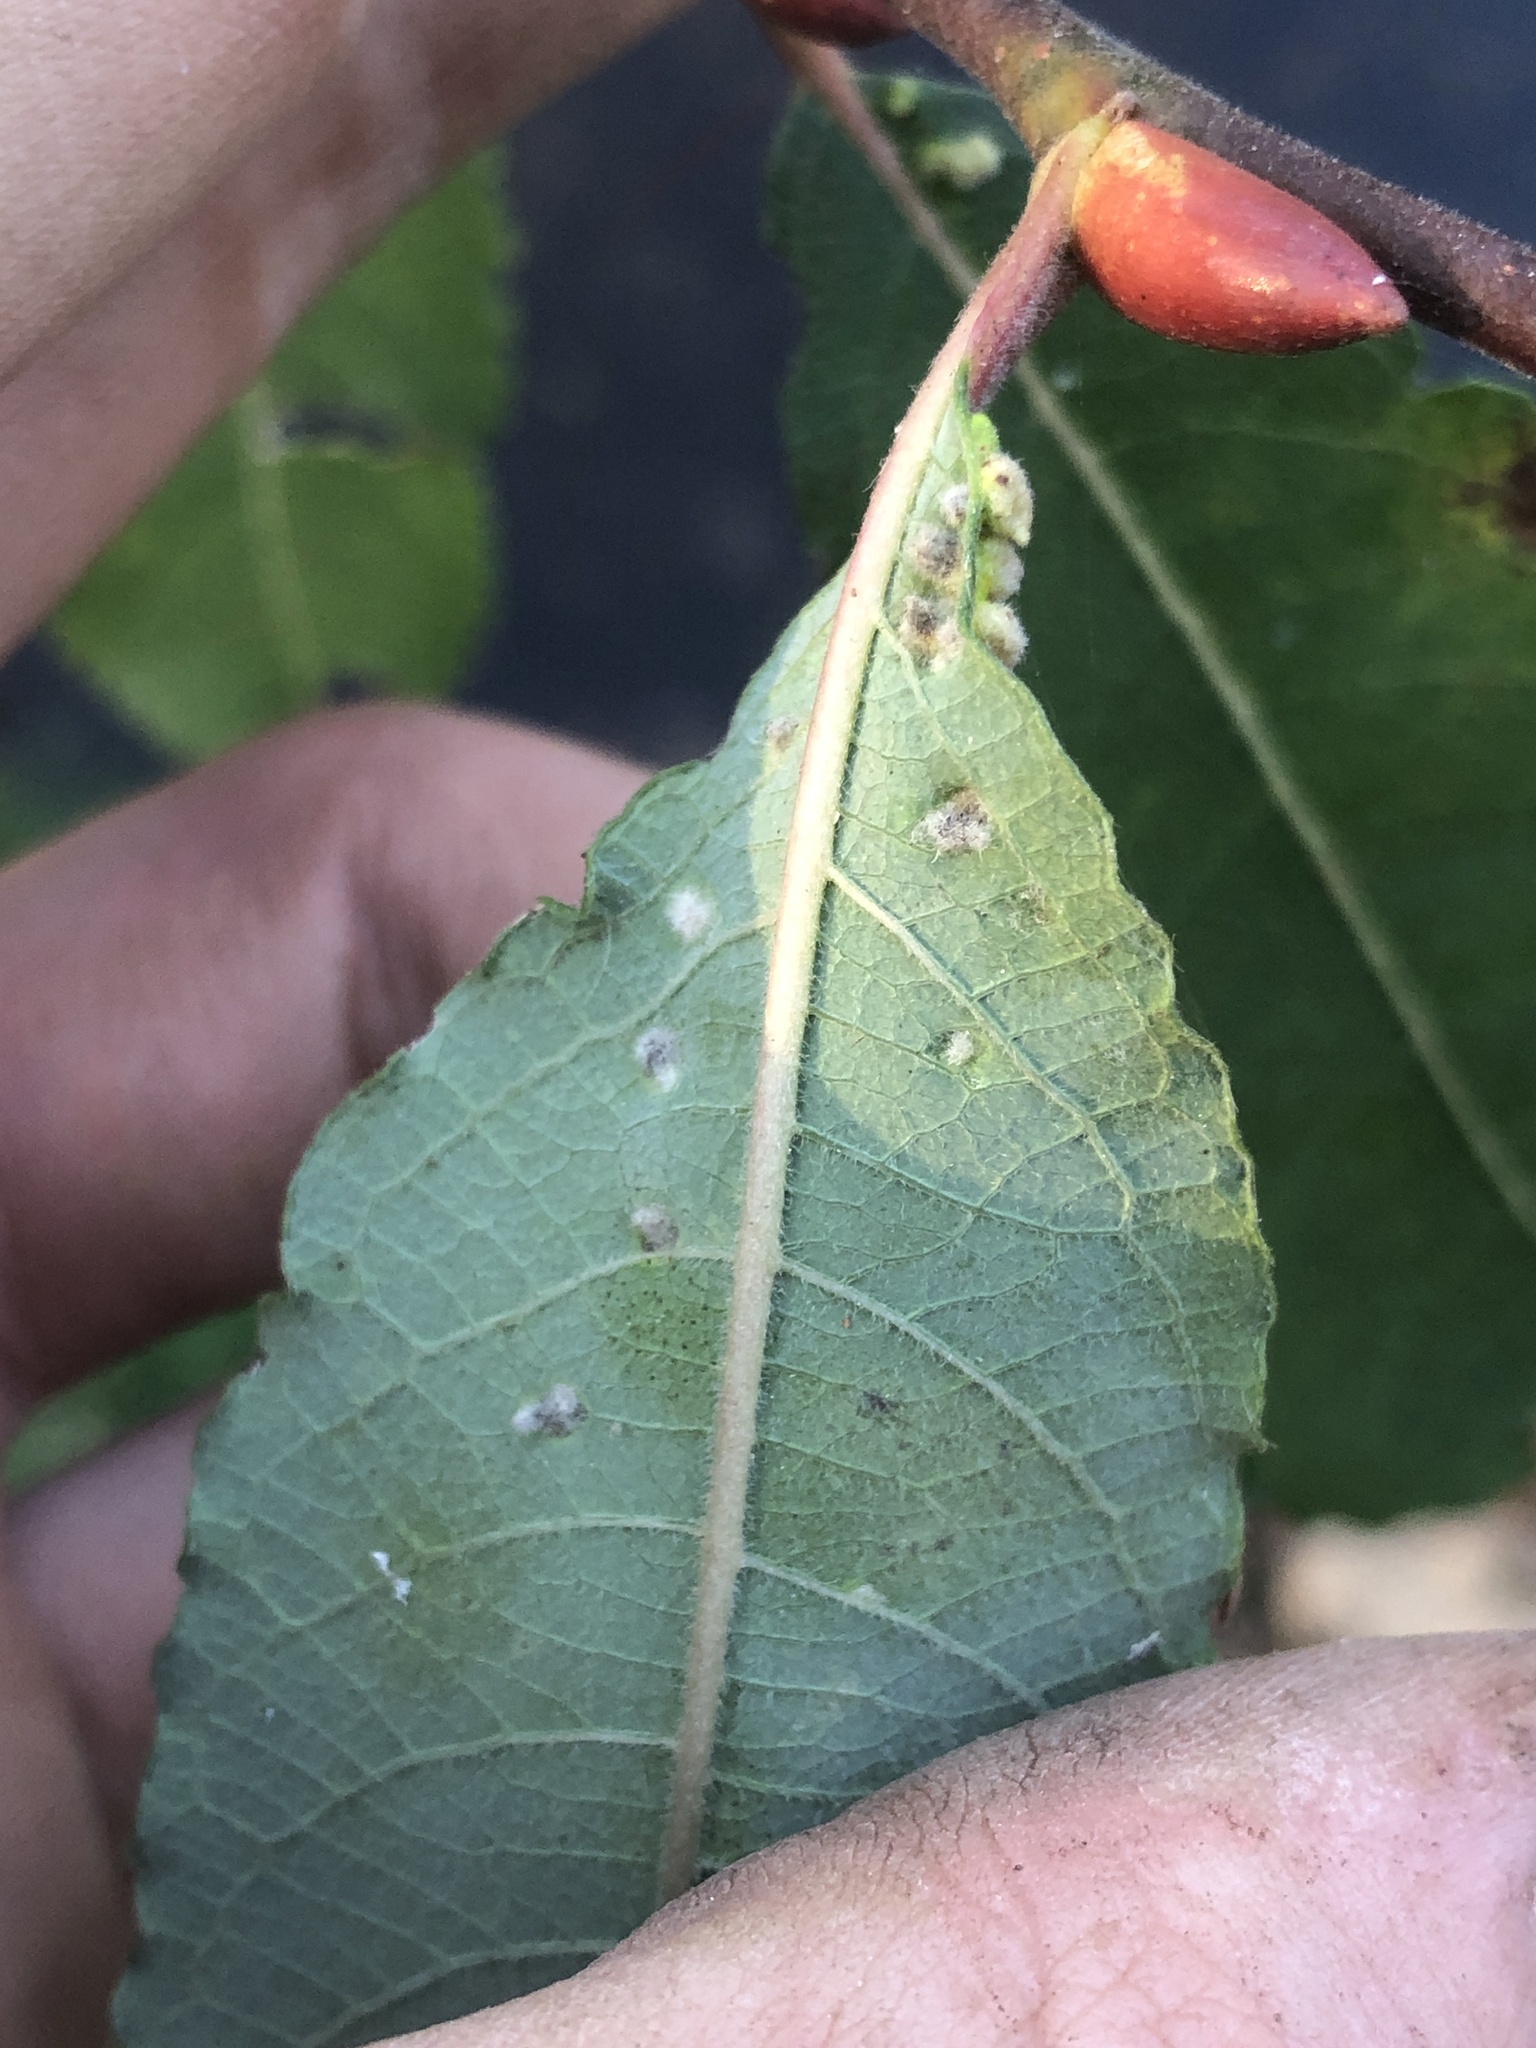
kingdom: Animalia
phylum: Arthropoda
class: Arachnida
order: Trombidiformes
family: Eriophyidae
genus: Aculus
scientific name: Aculus tetanothrix
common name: Willow bead gall mite
